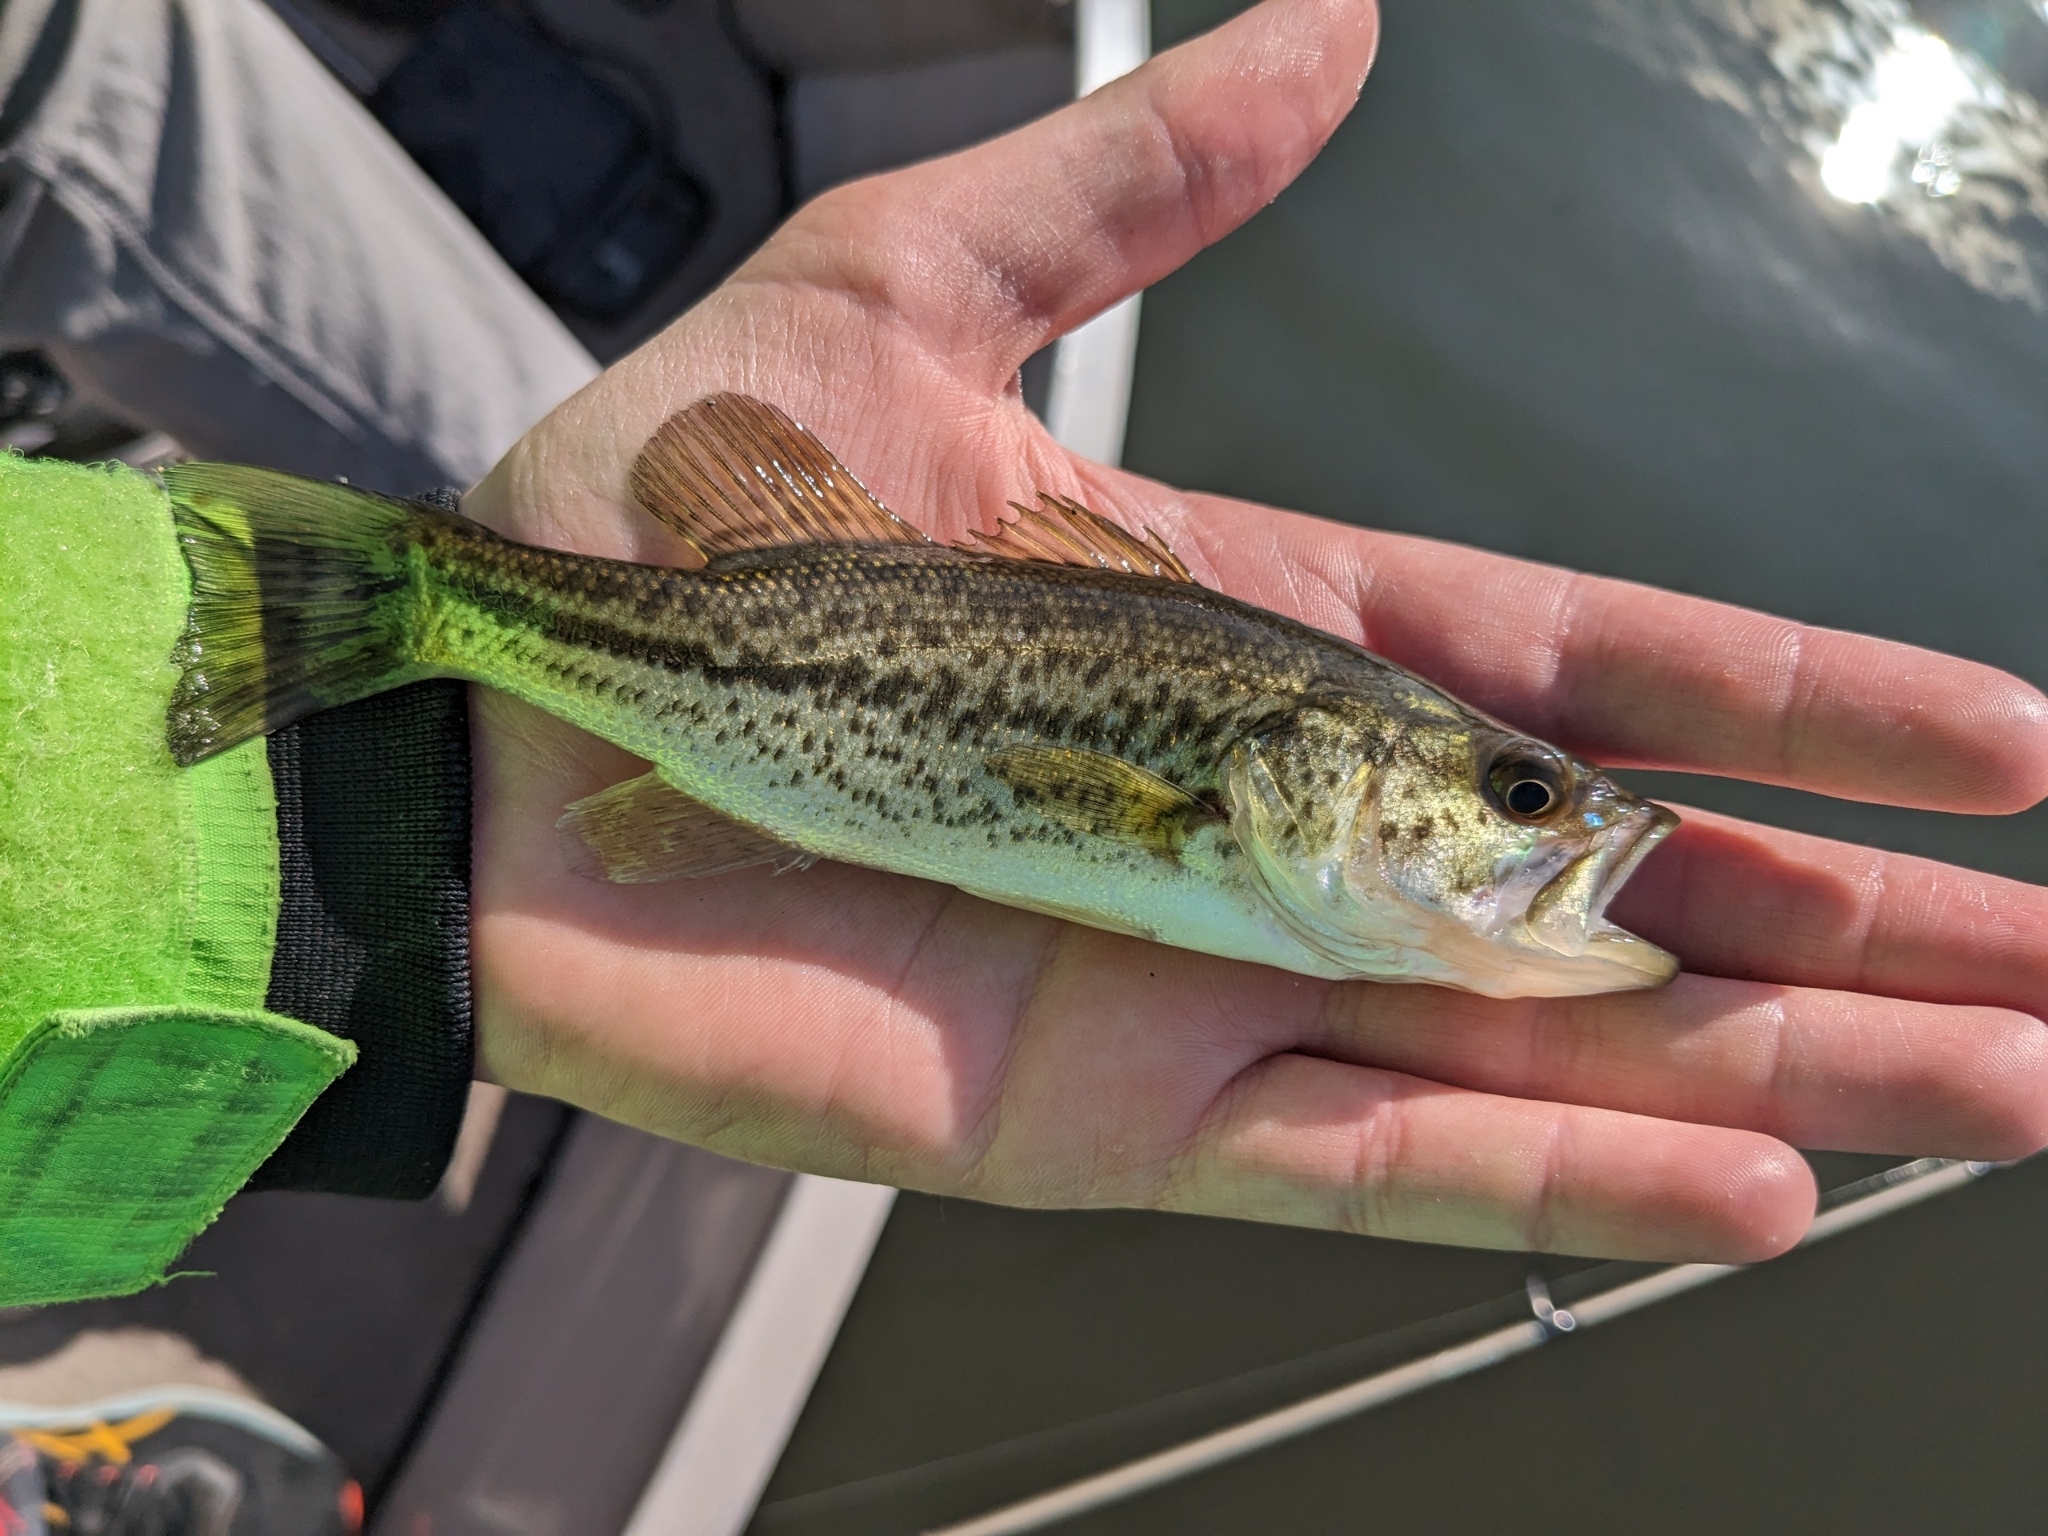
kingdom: Animalia
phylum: Chordata
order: Perciformes
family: Centrarchidae
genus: Micropterus
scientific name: Micropterus
